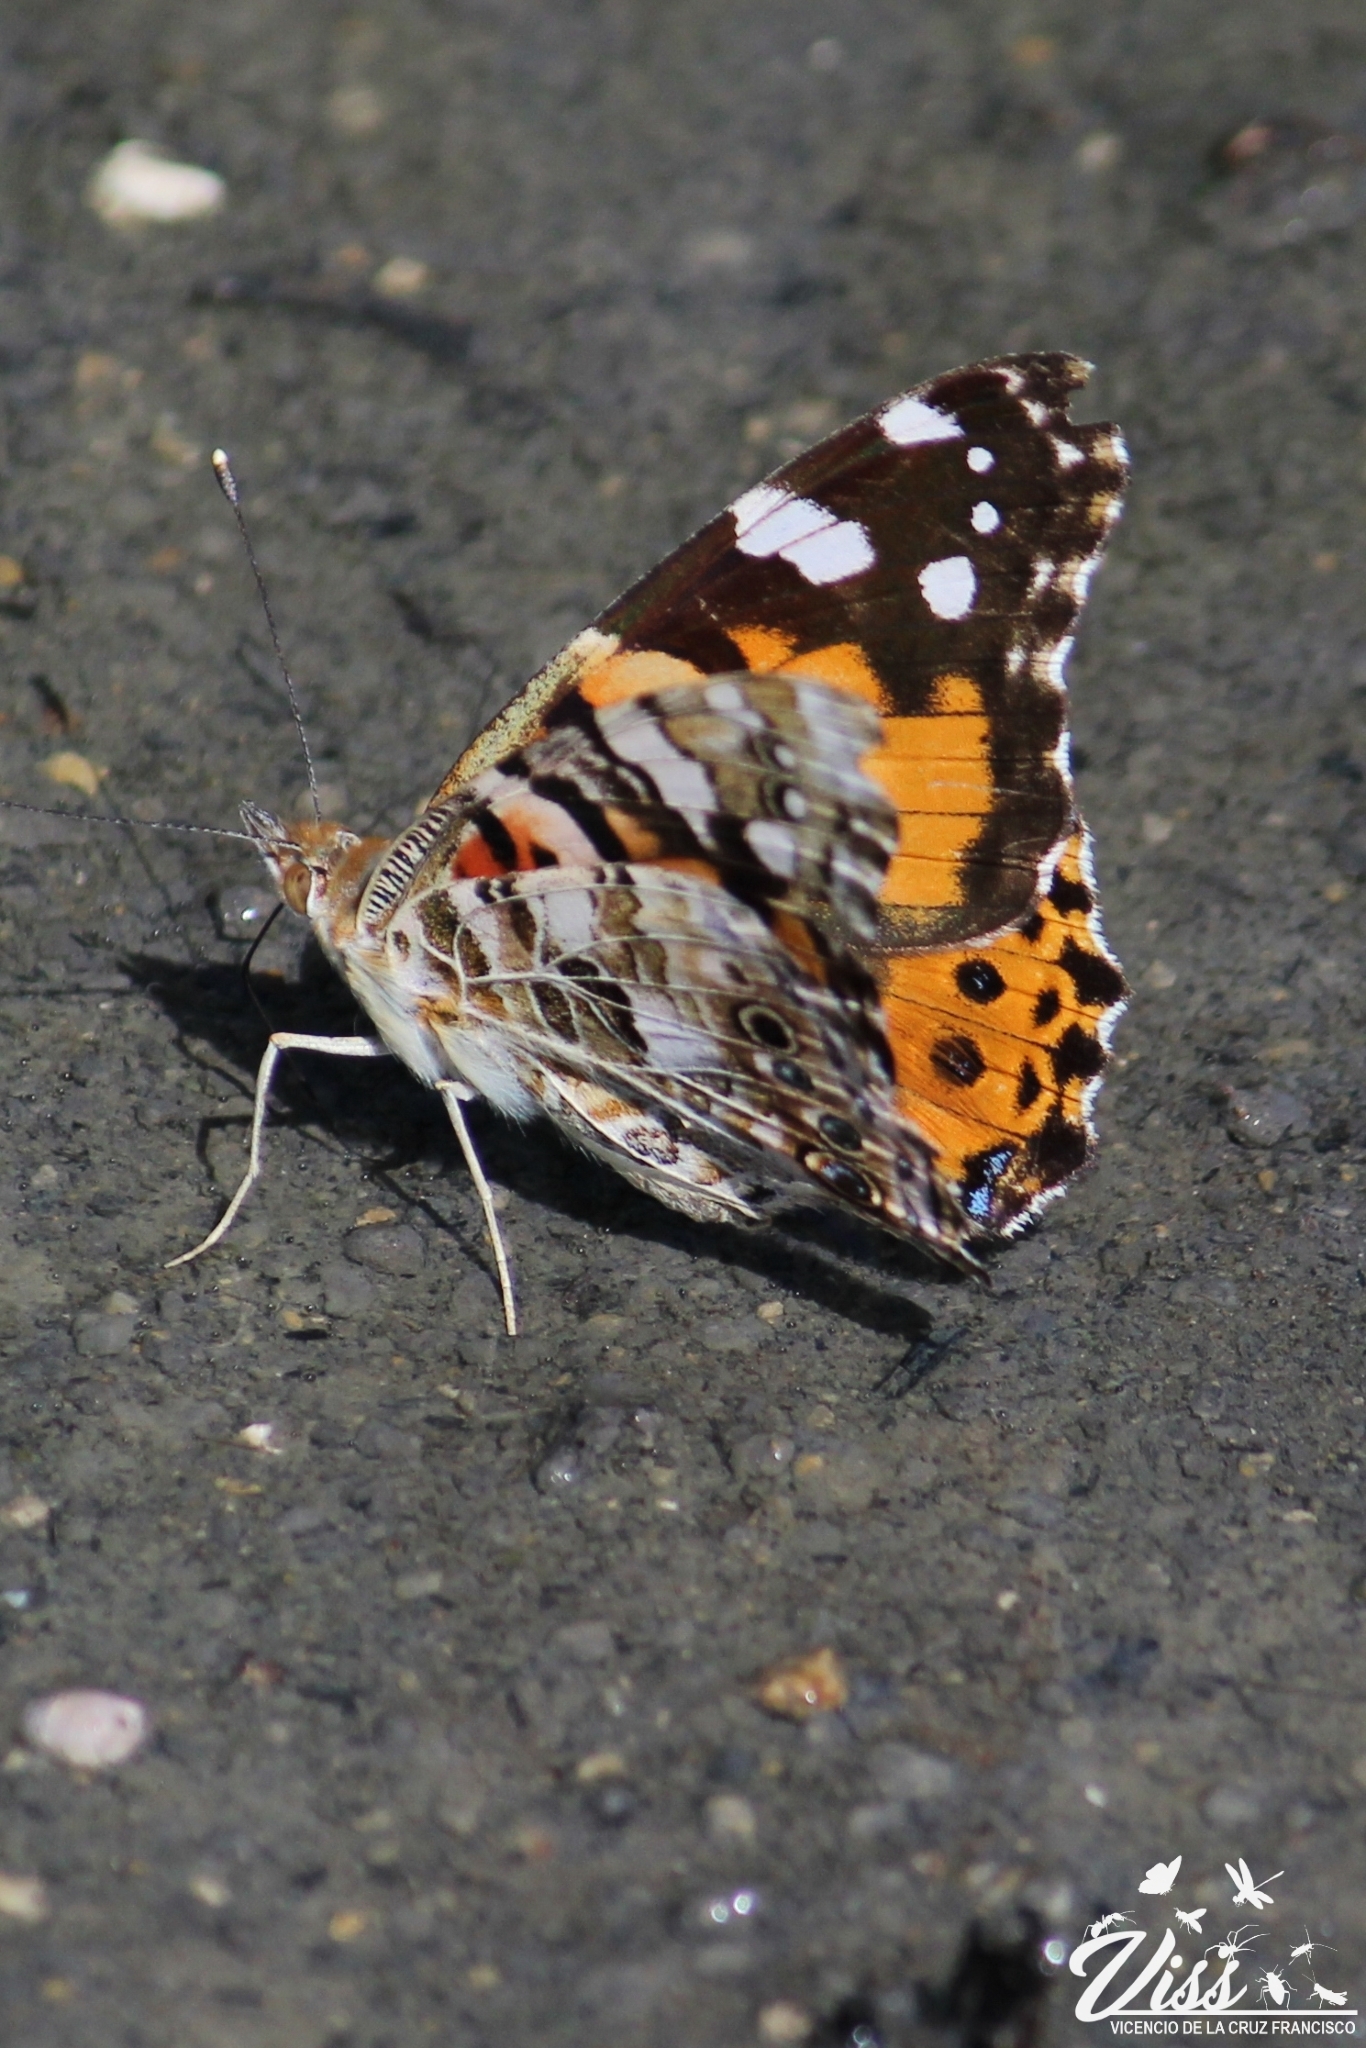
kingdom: Animalia
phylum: Arthropoda
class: Insecta
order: Lepidoptera
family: Nymphalidae
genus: Vanessa
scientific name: Vanessa cardui
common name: Painted lady
